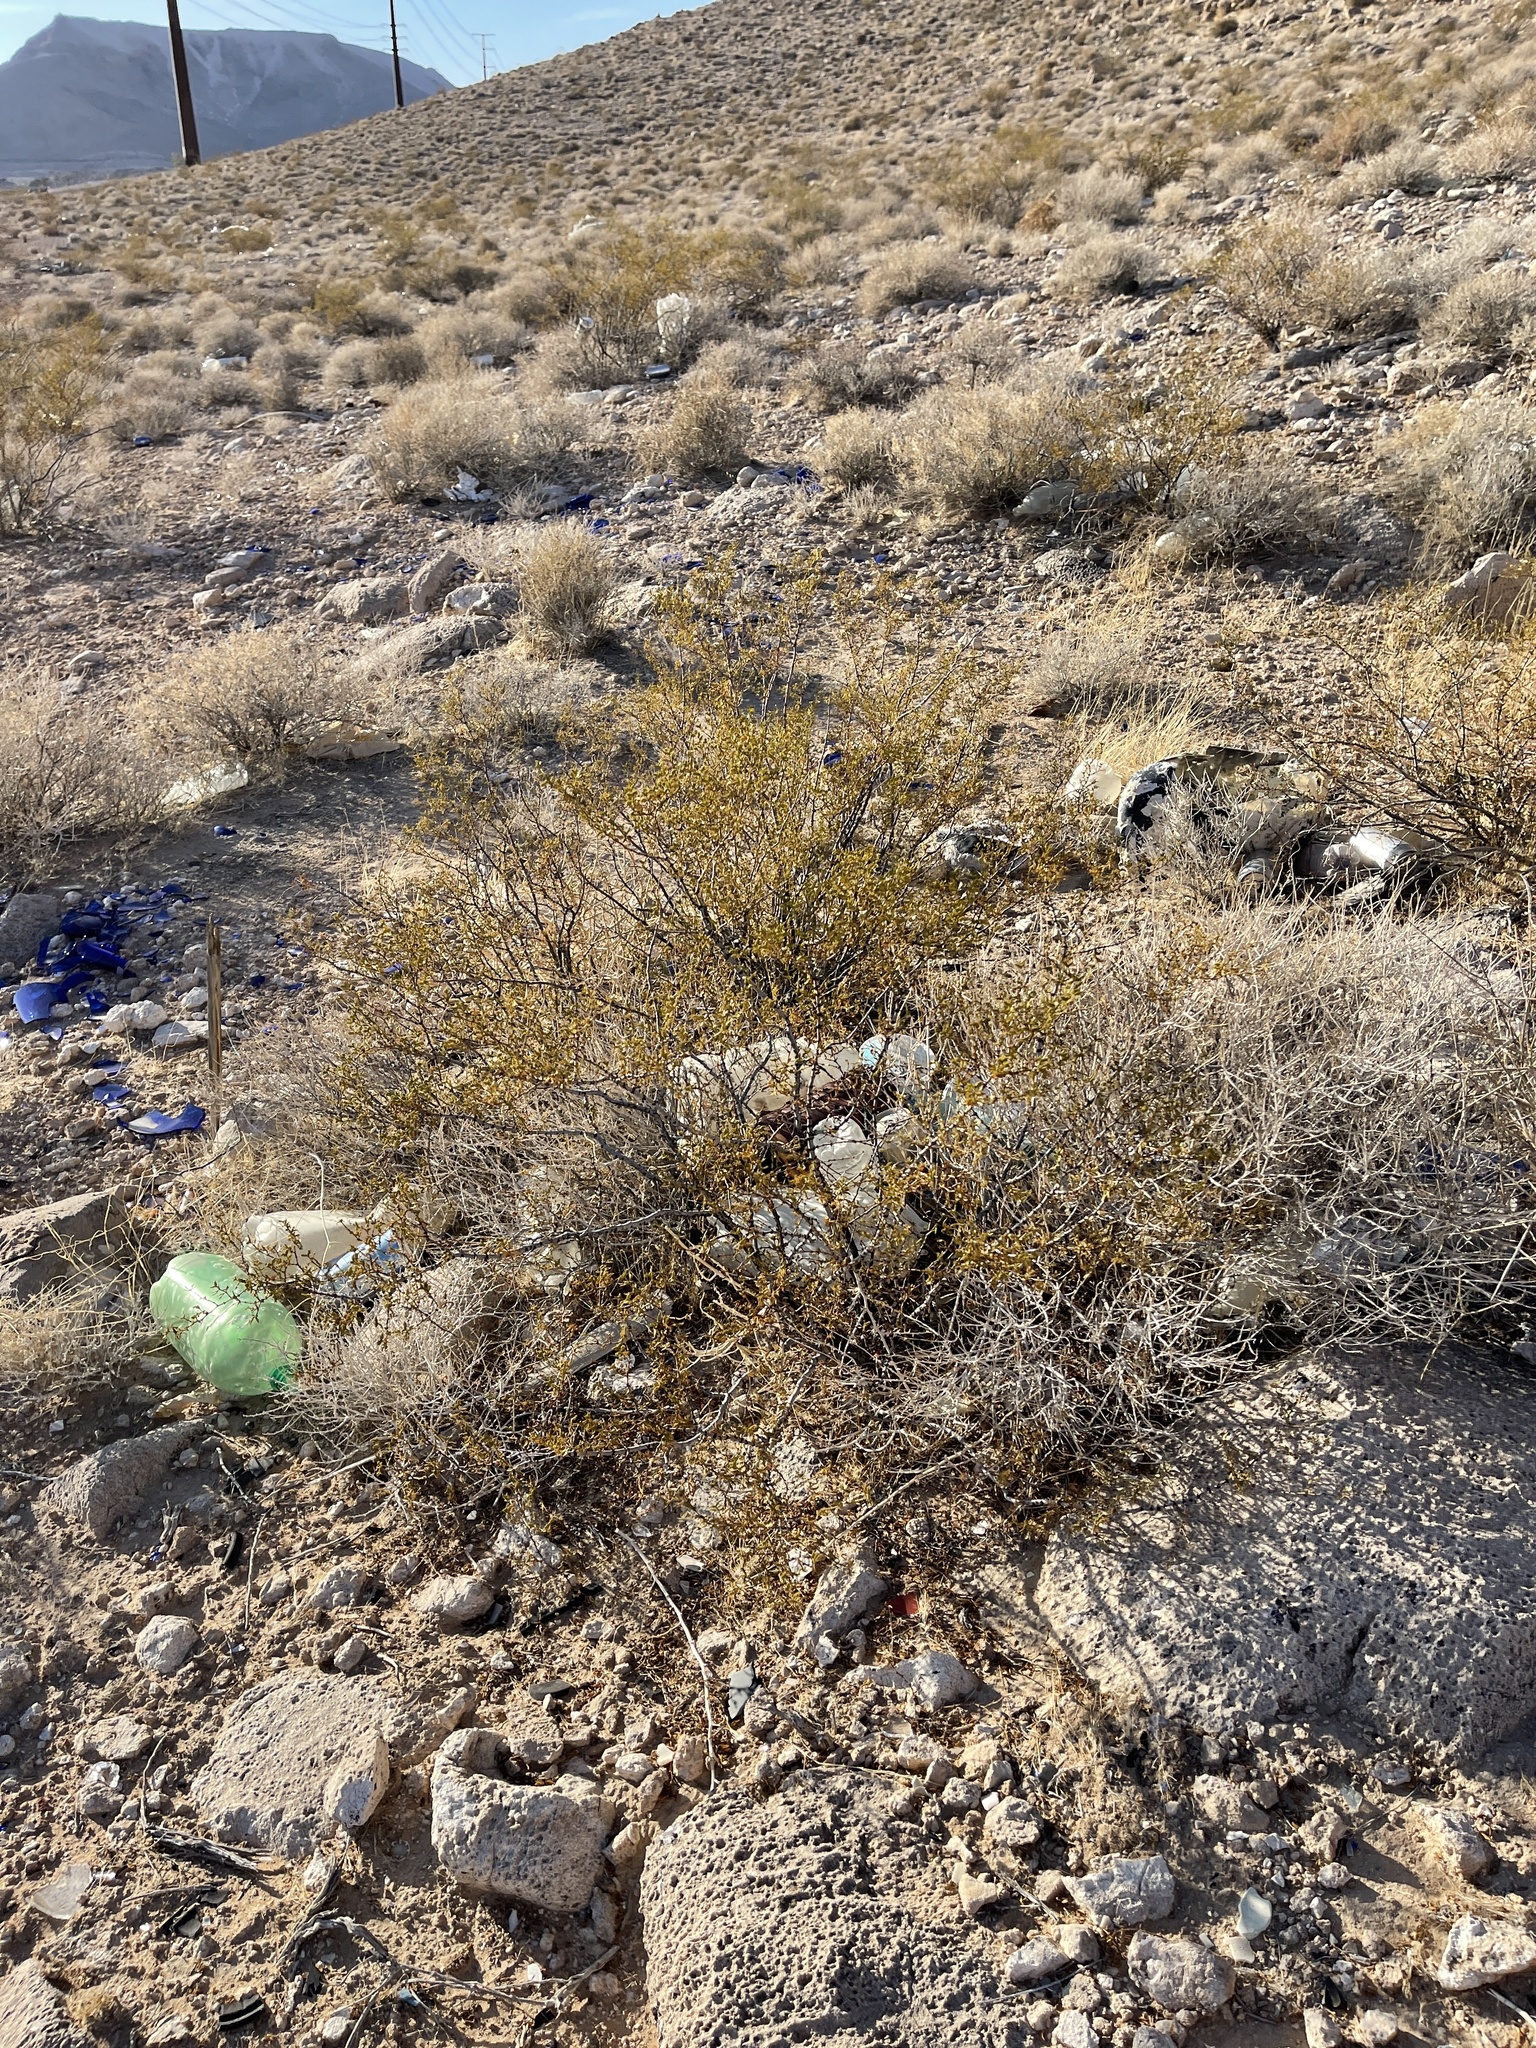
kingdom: Plantae
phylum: Tracheophyta
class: Magnoliopsida
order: Zygophyllales
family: Zygophyllaceae
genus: Larrea
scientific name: Larrea tridentata
